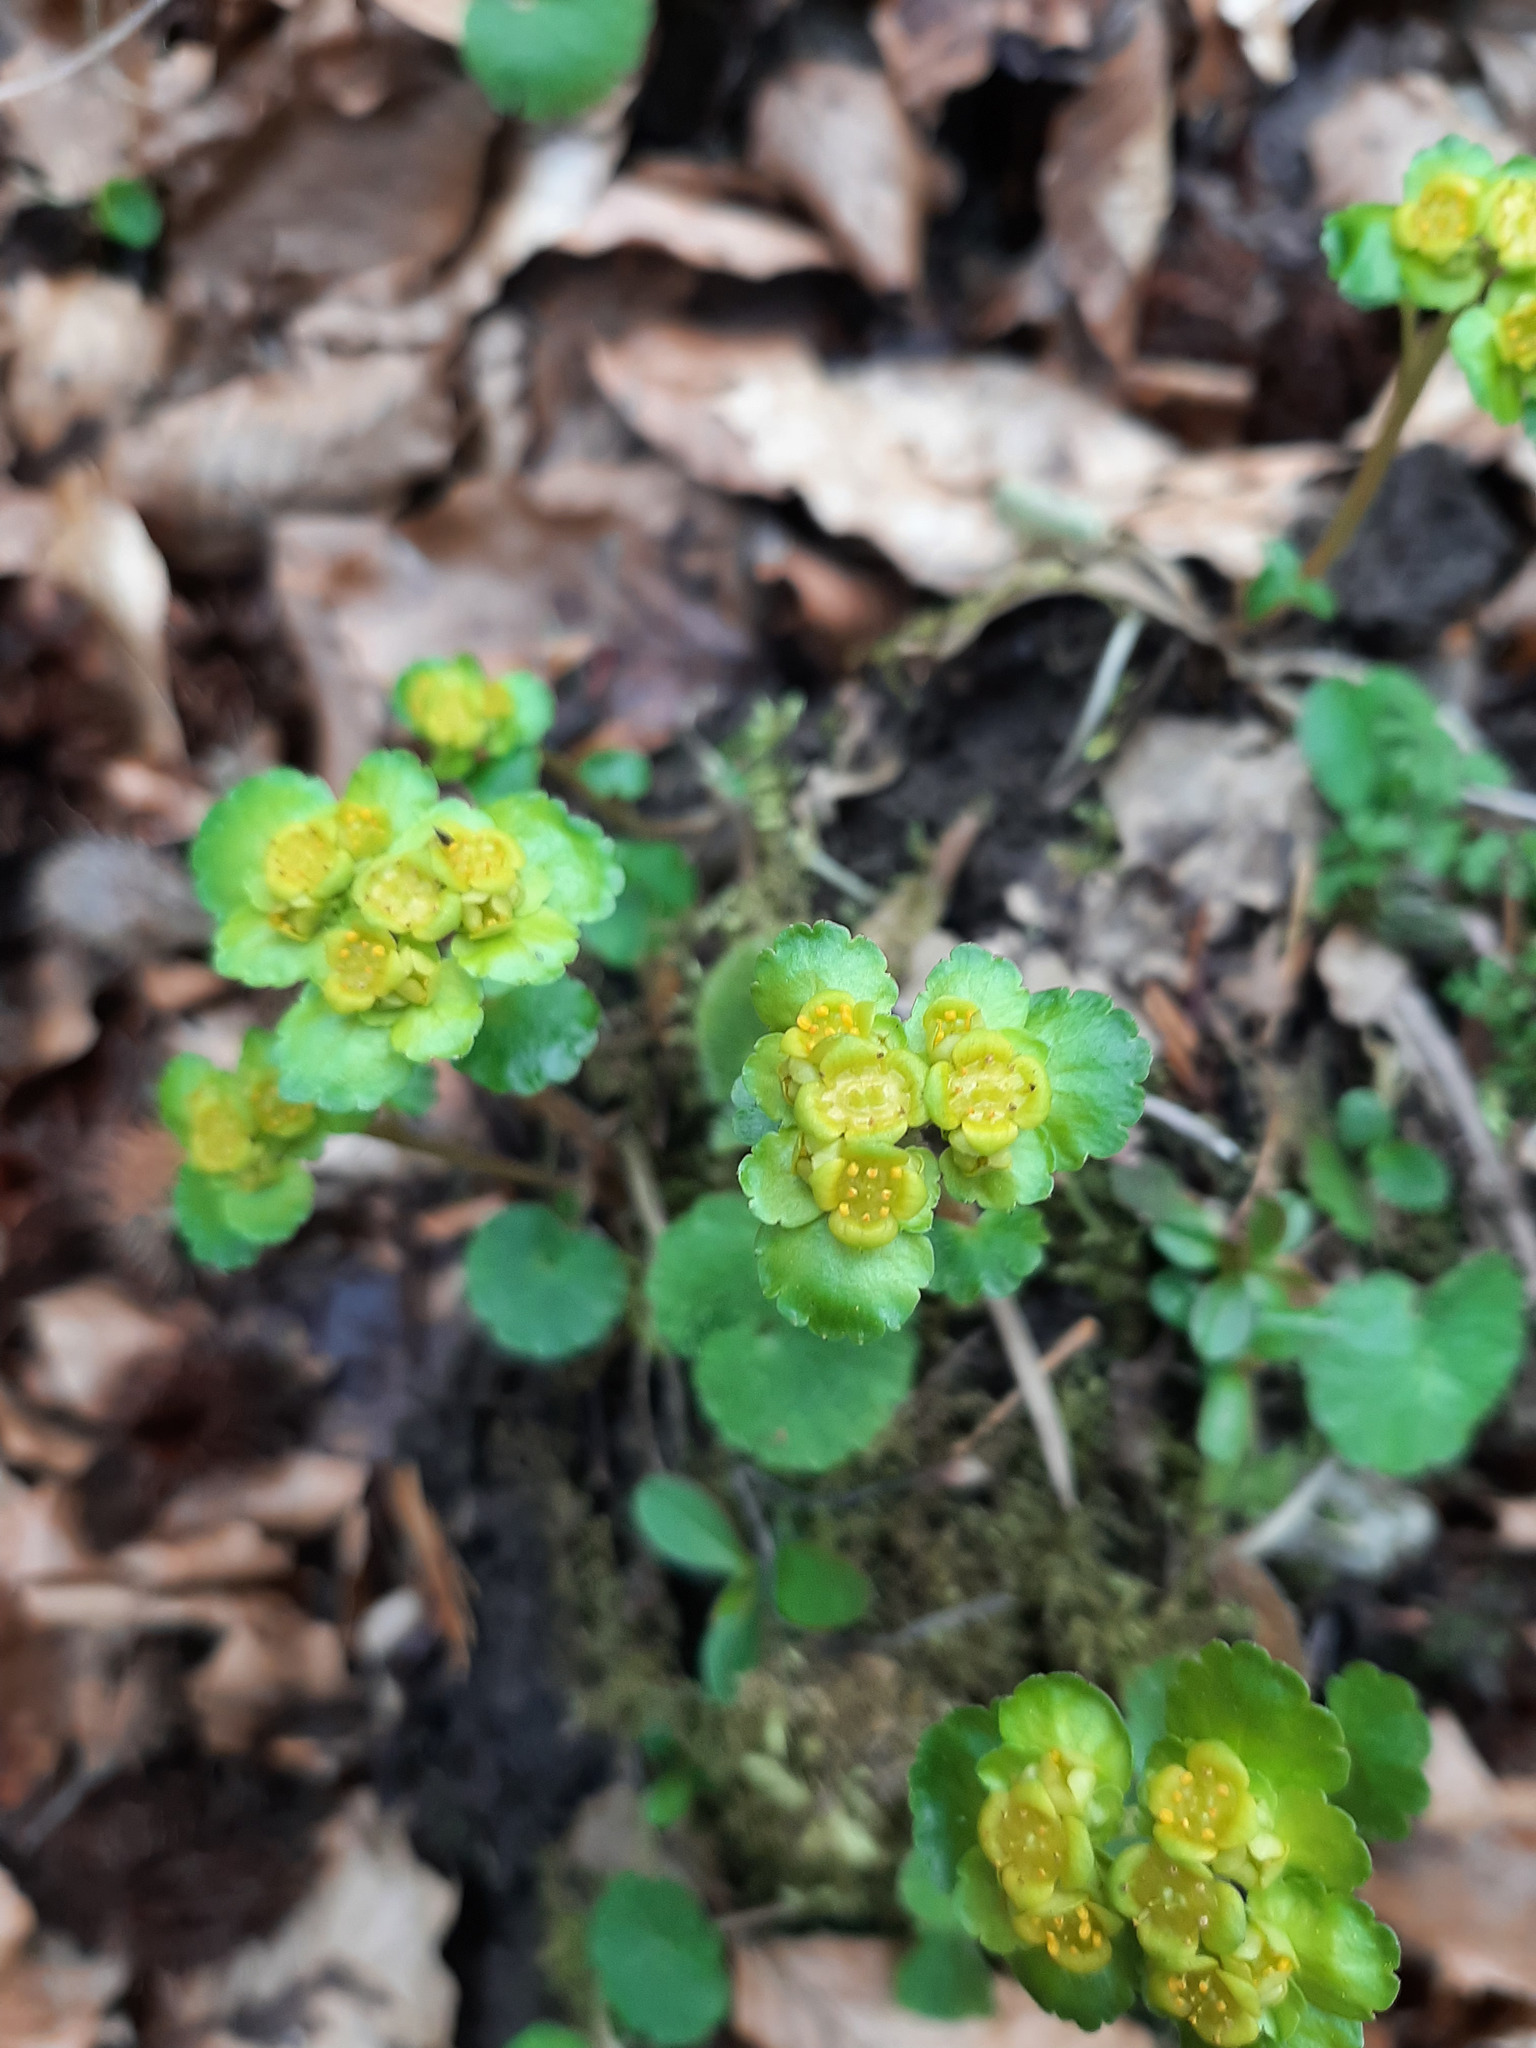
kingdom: Plantae
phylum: Tracheophyta
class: Magnoliopsida
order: Saxifragales
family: Saxifragaceae
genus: Chrysosplenium
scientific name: Chrysosplenium alternifolium
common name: Alternate-leaved golden-saxifrage
